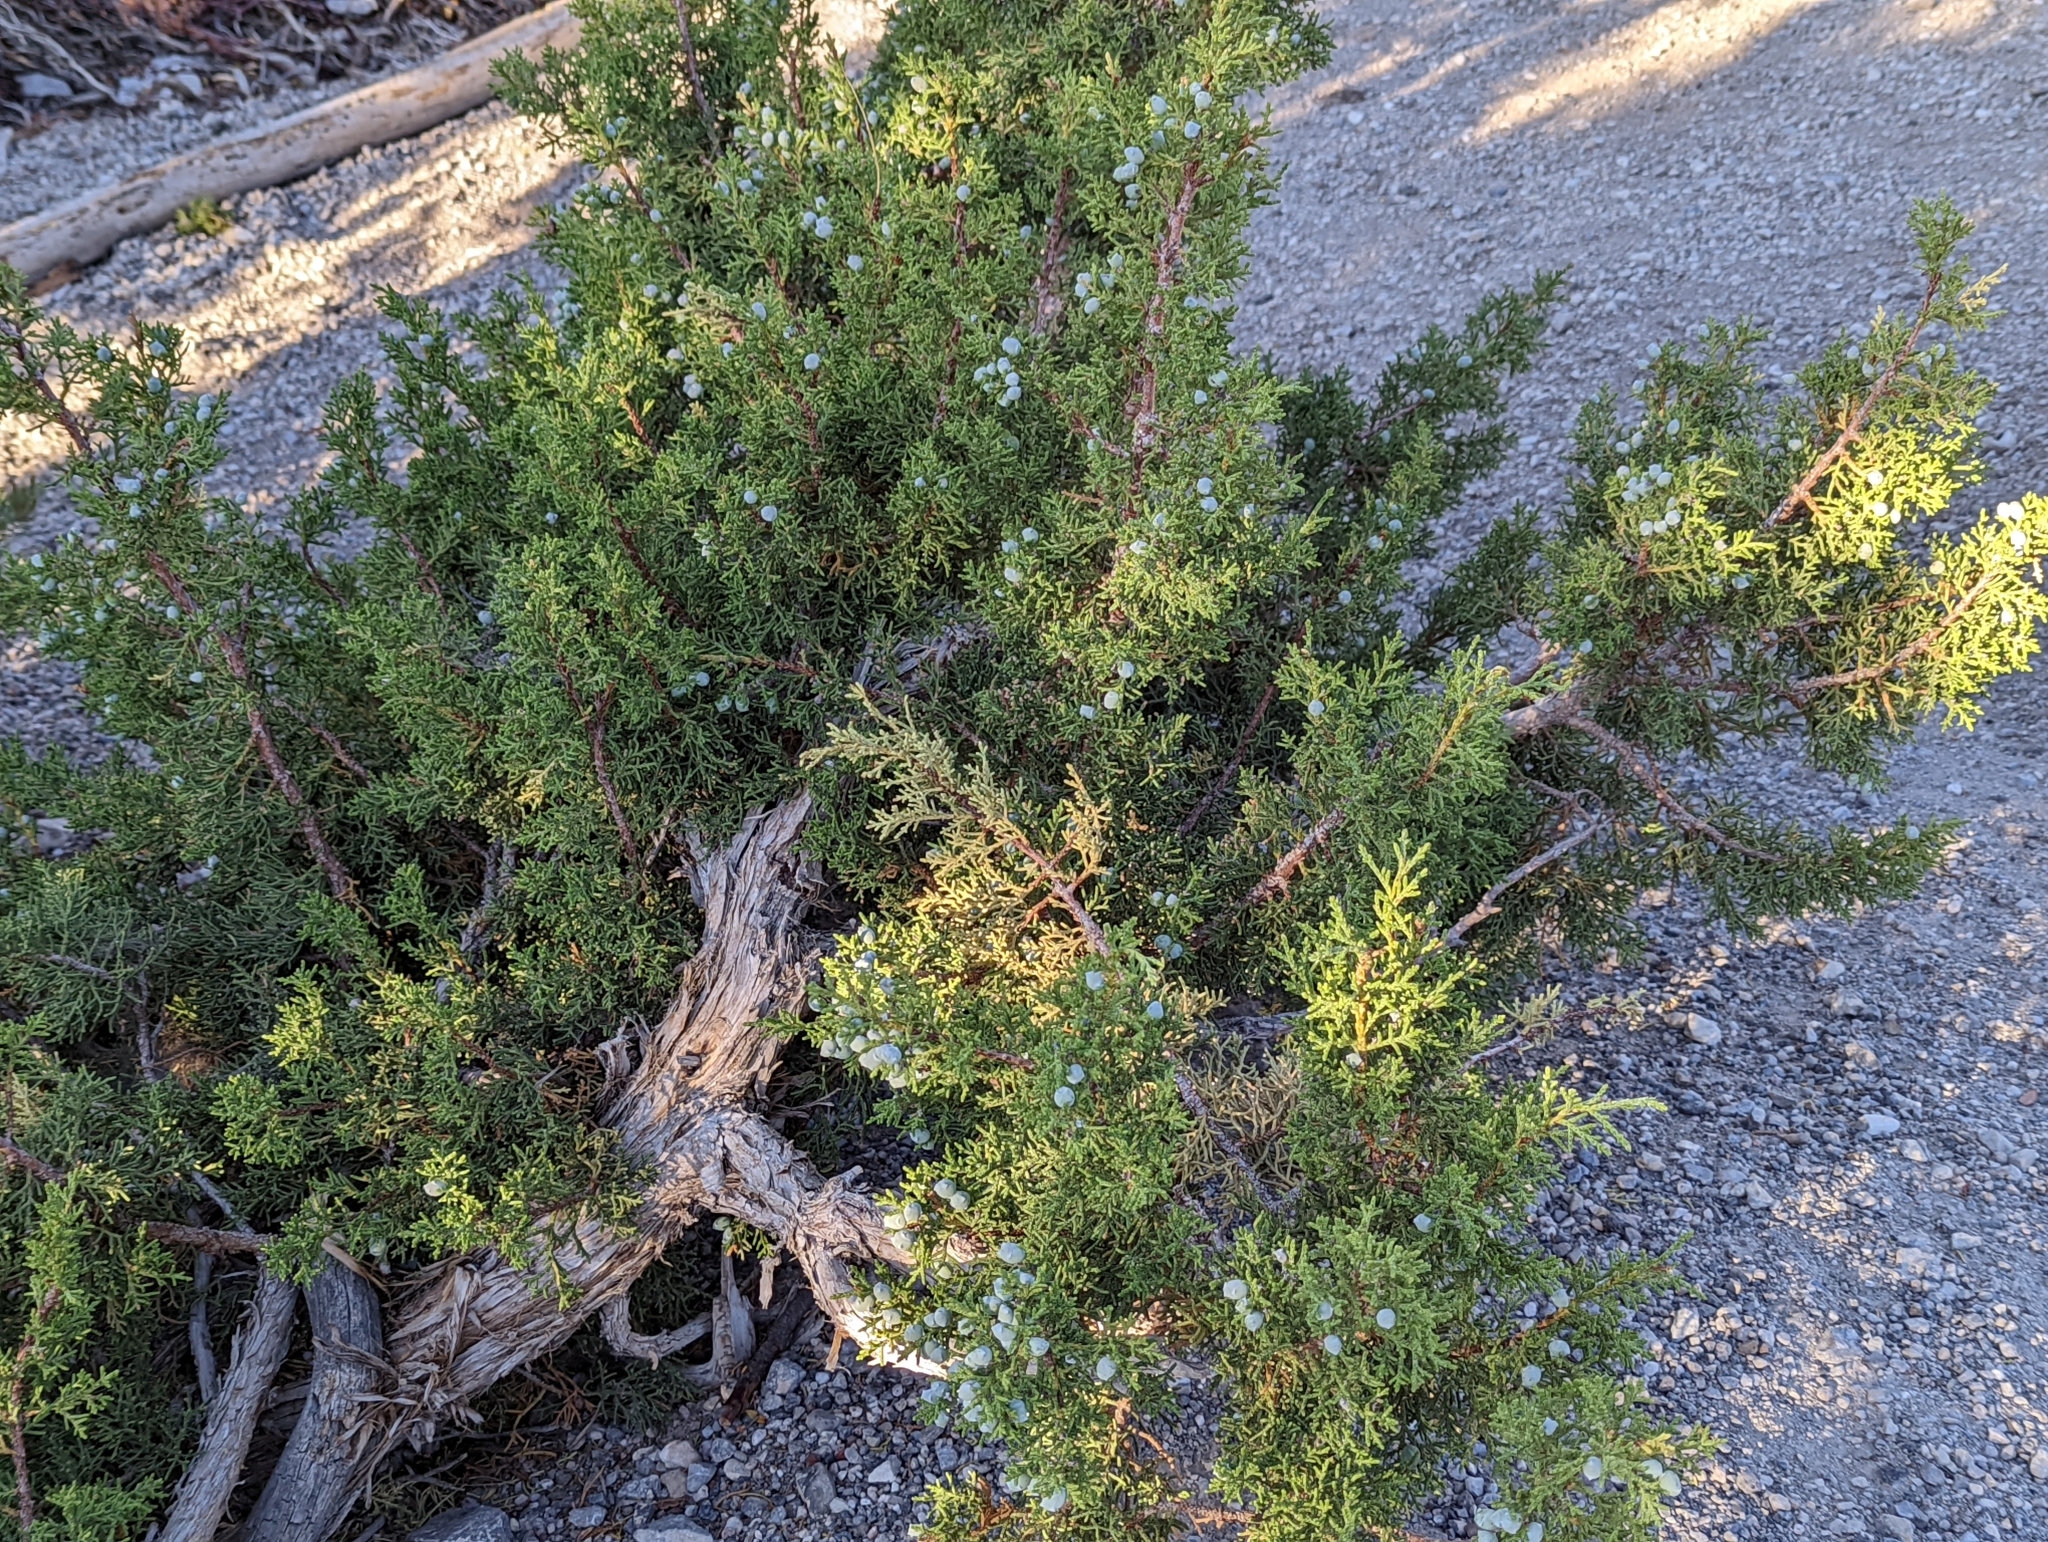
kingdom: Plantae
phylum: Tracheophyta
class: Pinopsida
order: Pinales
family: Cupressaceae
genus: Juniperus
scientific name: Juniperus osteosperma
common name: Utah juniper
